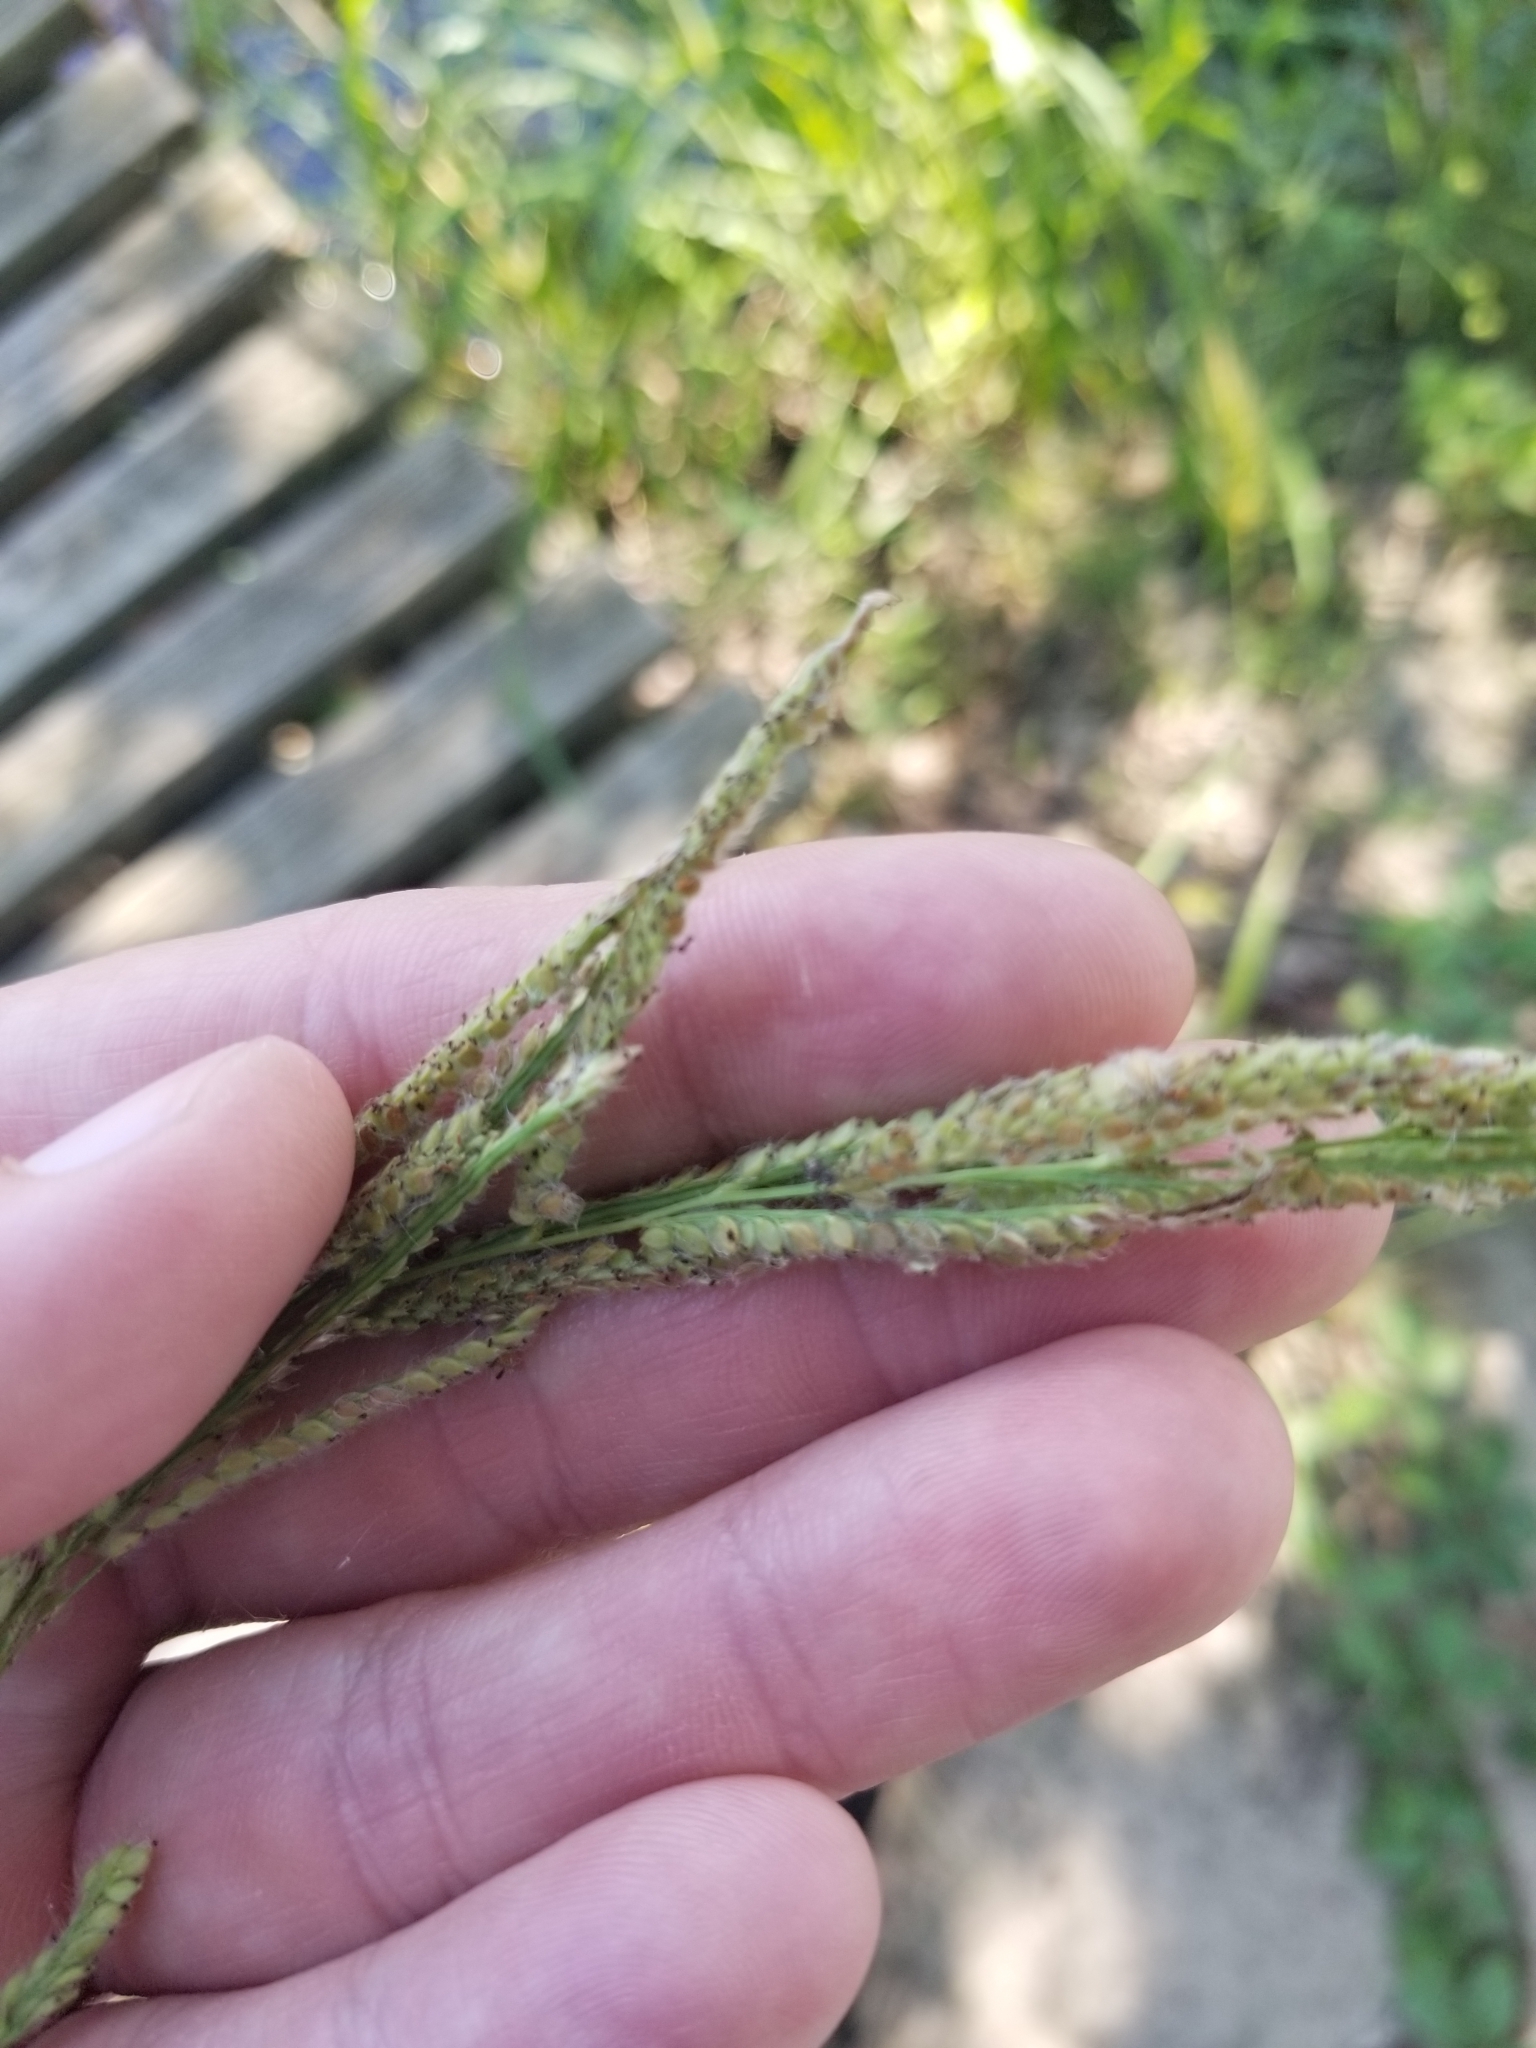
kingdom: Plantae
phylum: Tracheophyta
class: Liliopsida
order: Poales
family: Poaceae
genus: Paspalum
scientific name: Paspalum urvillei
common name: Vasey's grass
